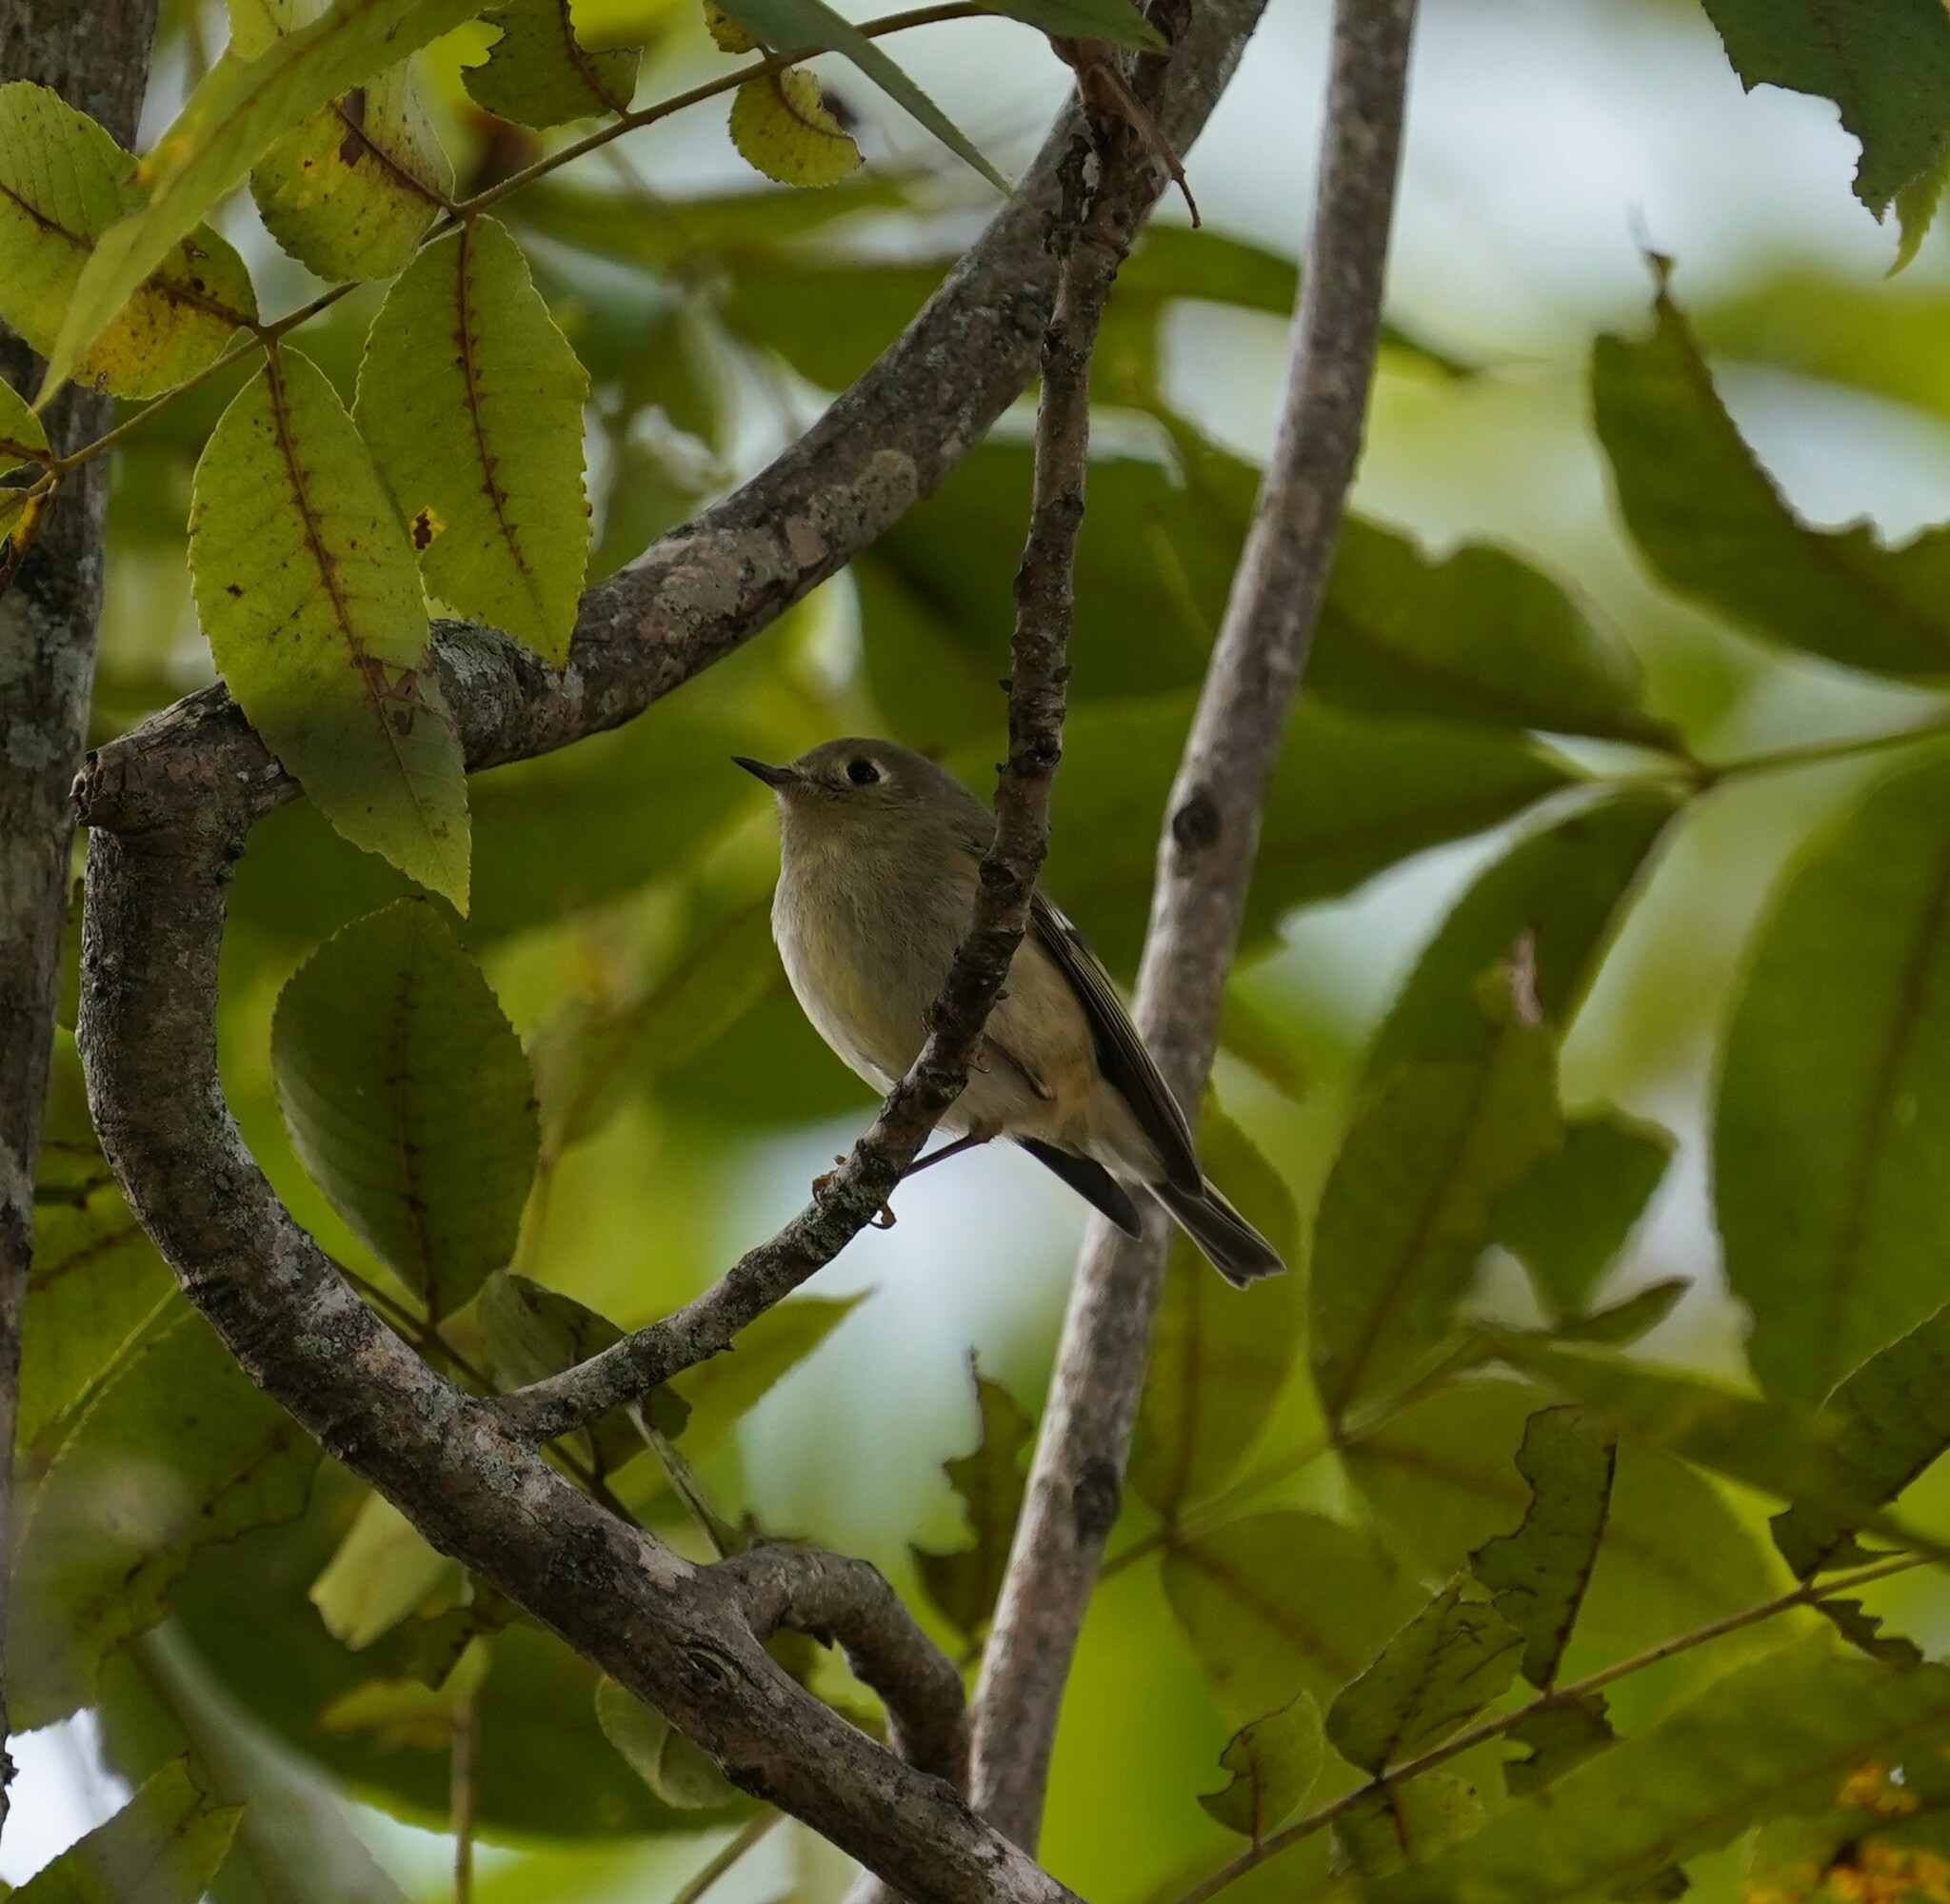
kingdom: Animalia
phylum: Chordata
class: Aves
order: Passeriformes
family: Regulidae
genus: Regulus
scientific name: Regulus calendula
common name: Ruby-crowned kinglet
